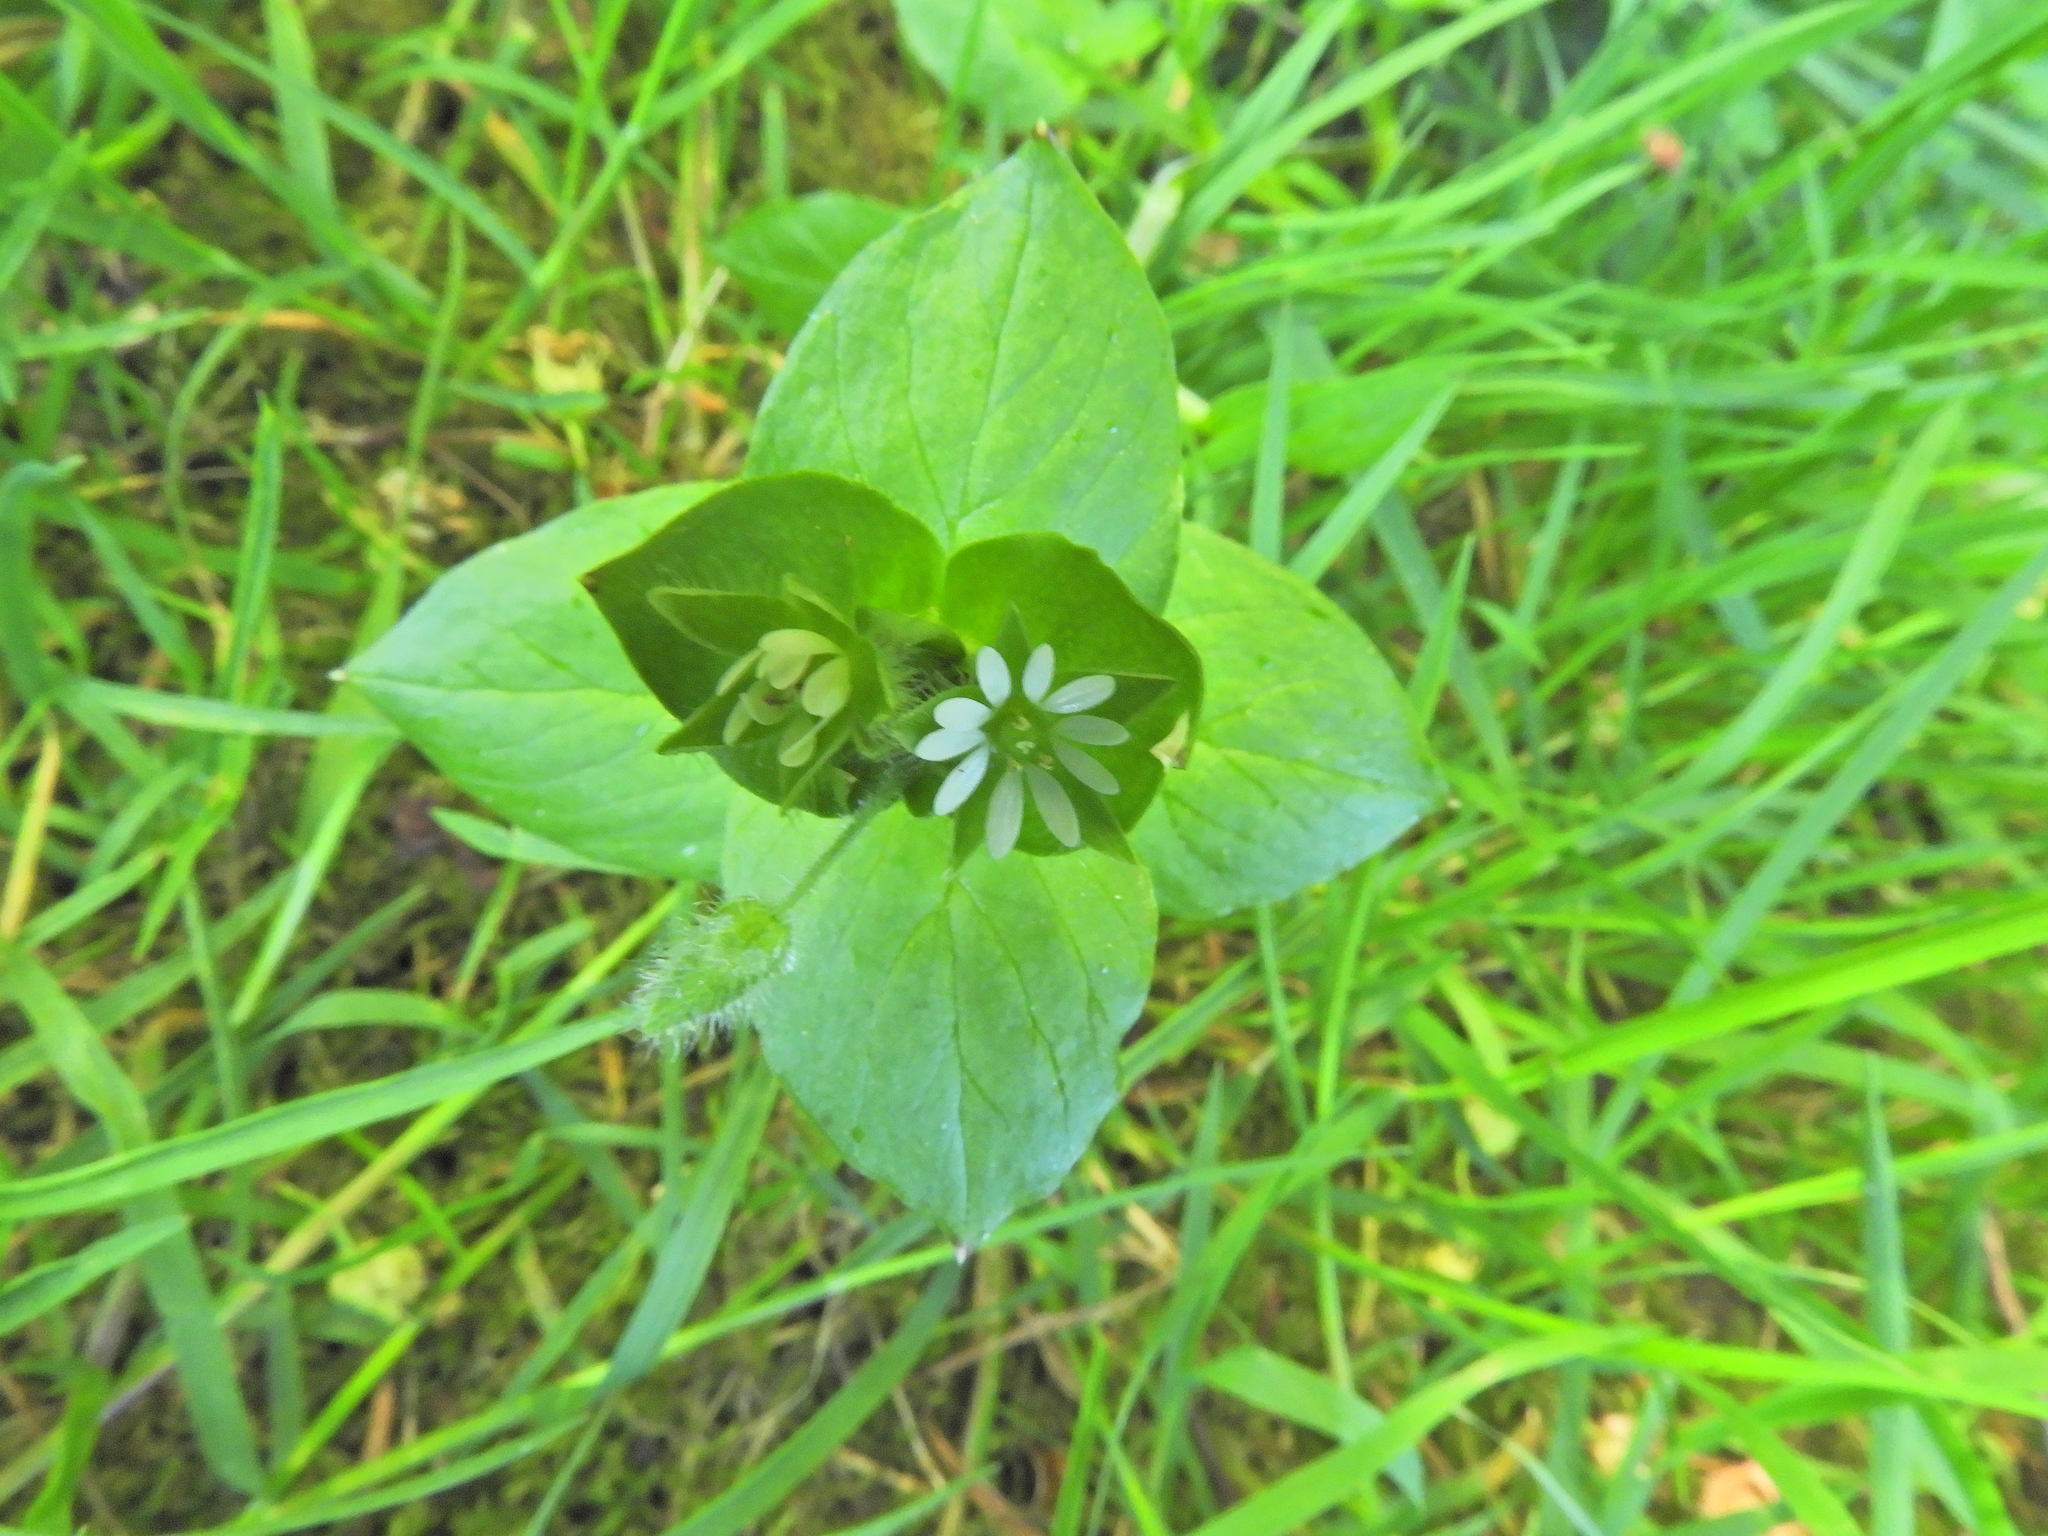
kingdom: Plantae
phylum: Tracheophyta
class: Magnoliopsida
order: Caryophyllales
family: Caryophyllaceae
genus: Stellaria
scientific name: Stellaria media
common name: Common chickweed
